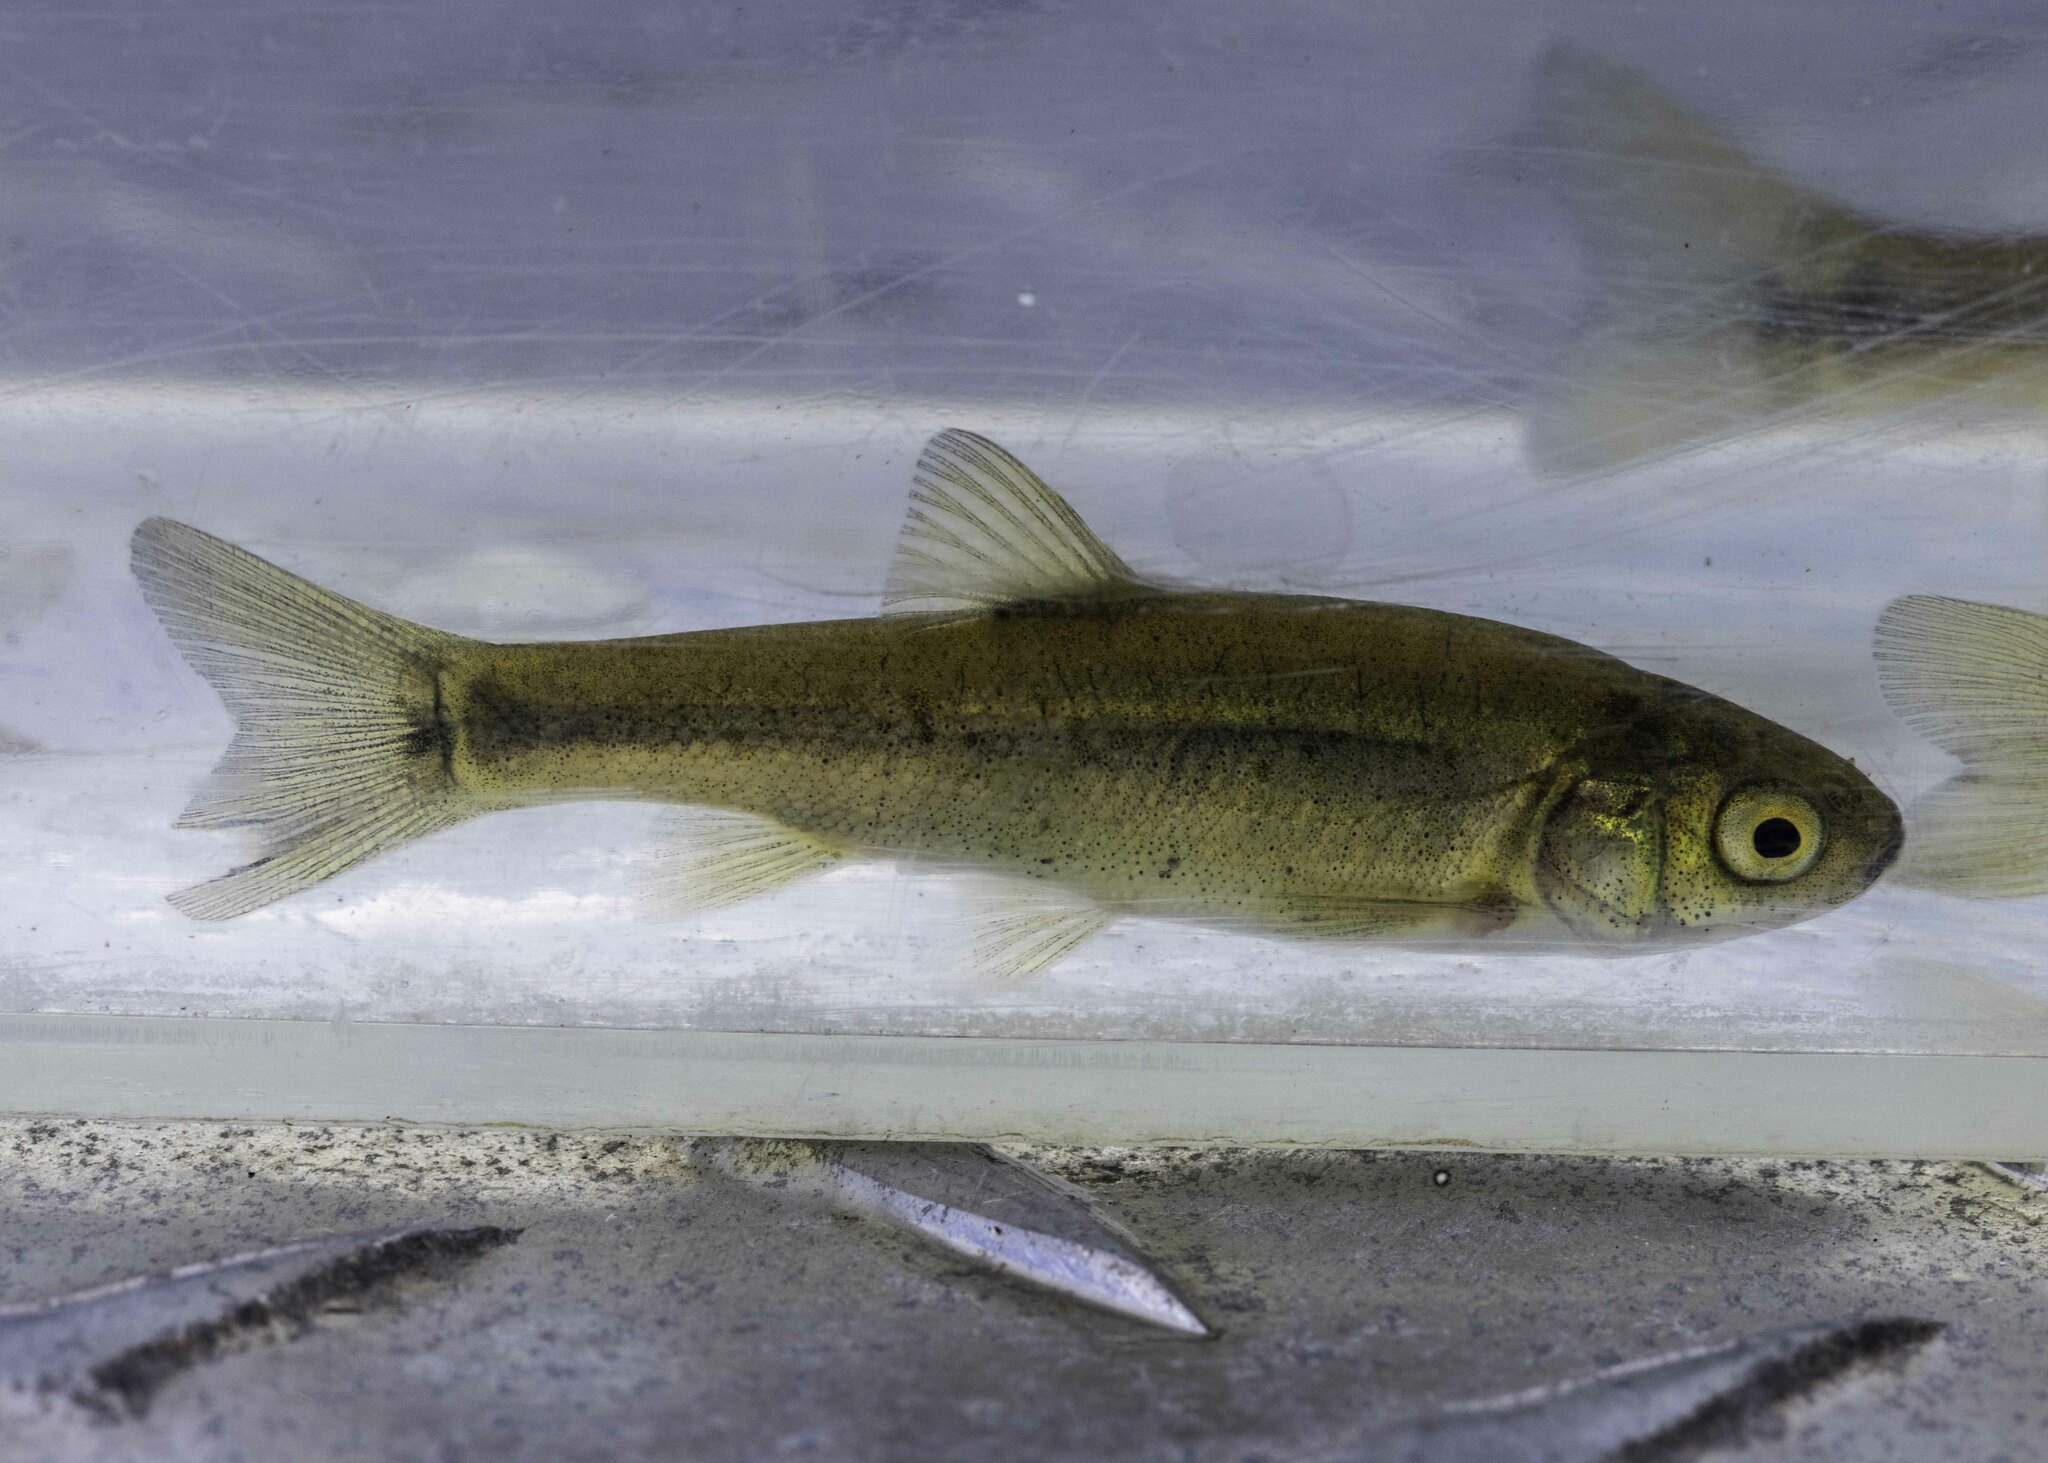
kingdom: Animalia
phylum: Chordata
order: Cypriniformes
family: Cyprinidae
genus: Gila
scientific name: Gila orcuttii
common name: Arroyo chub
